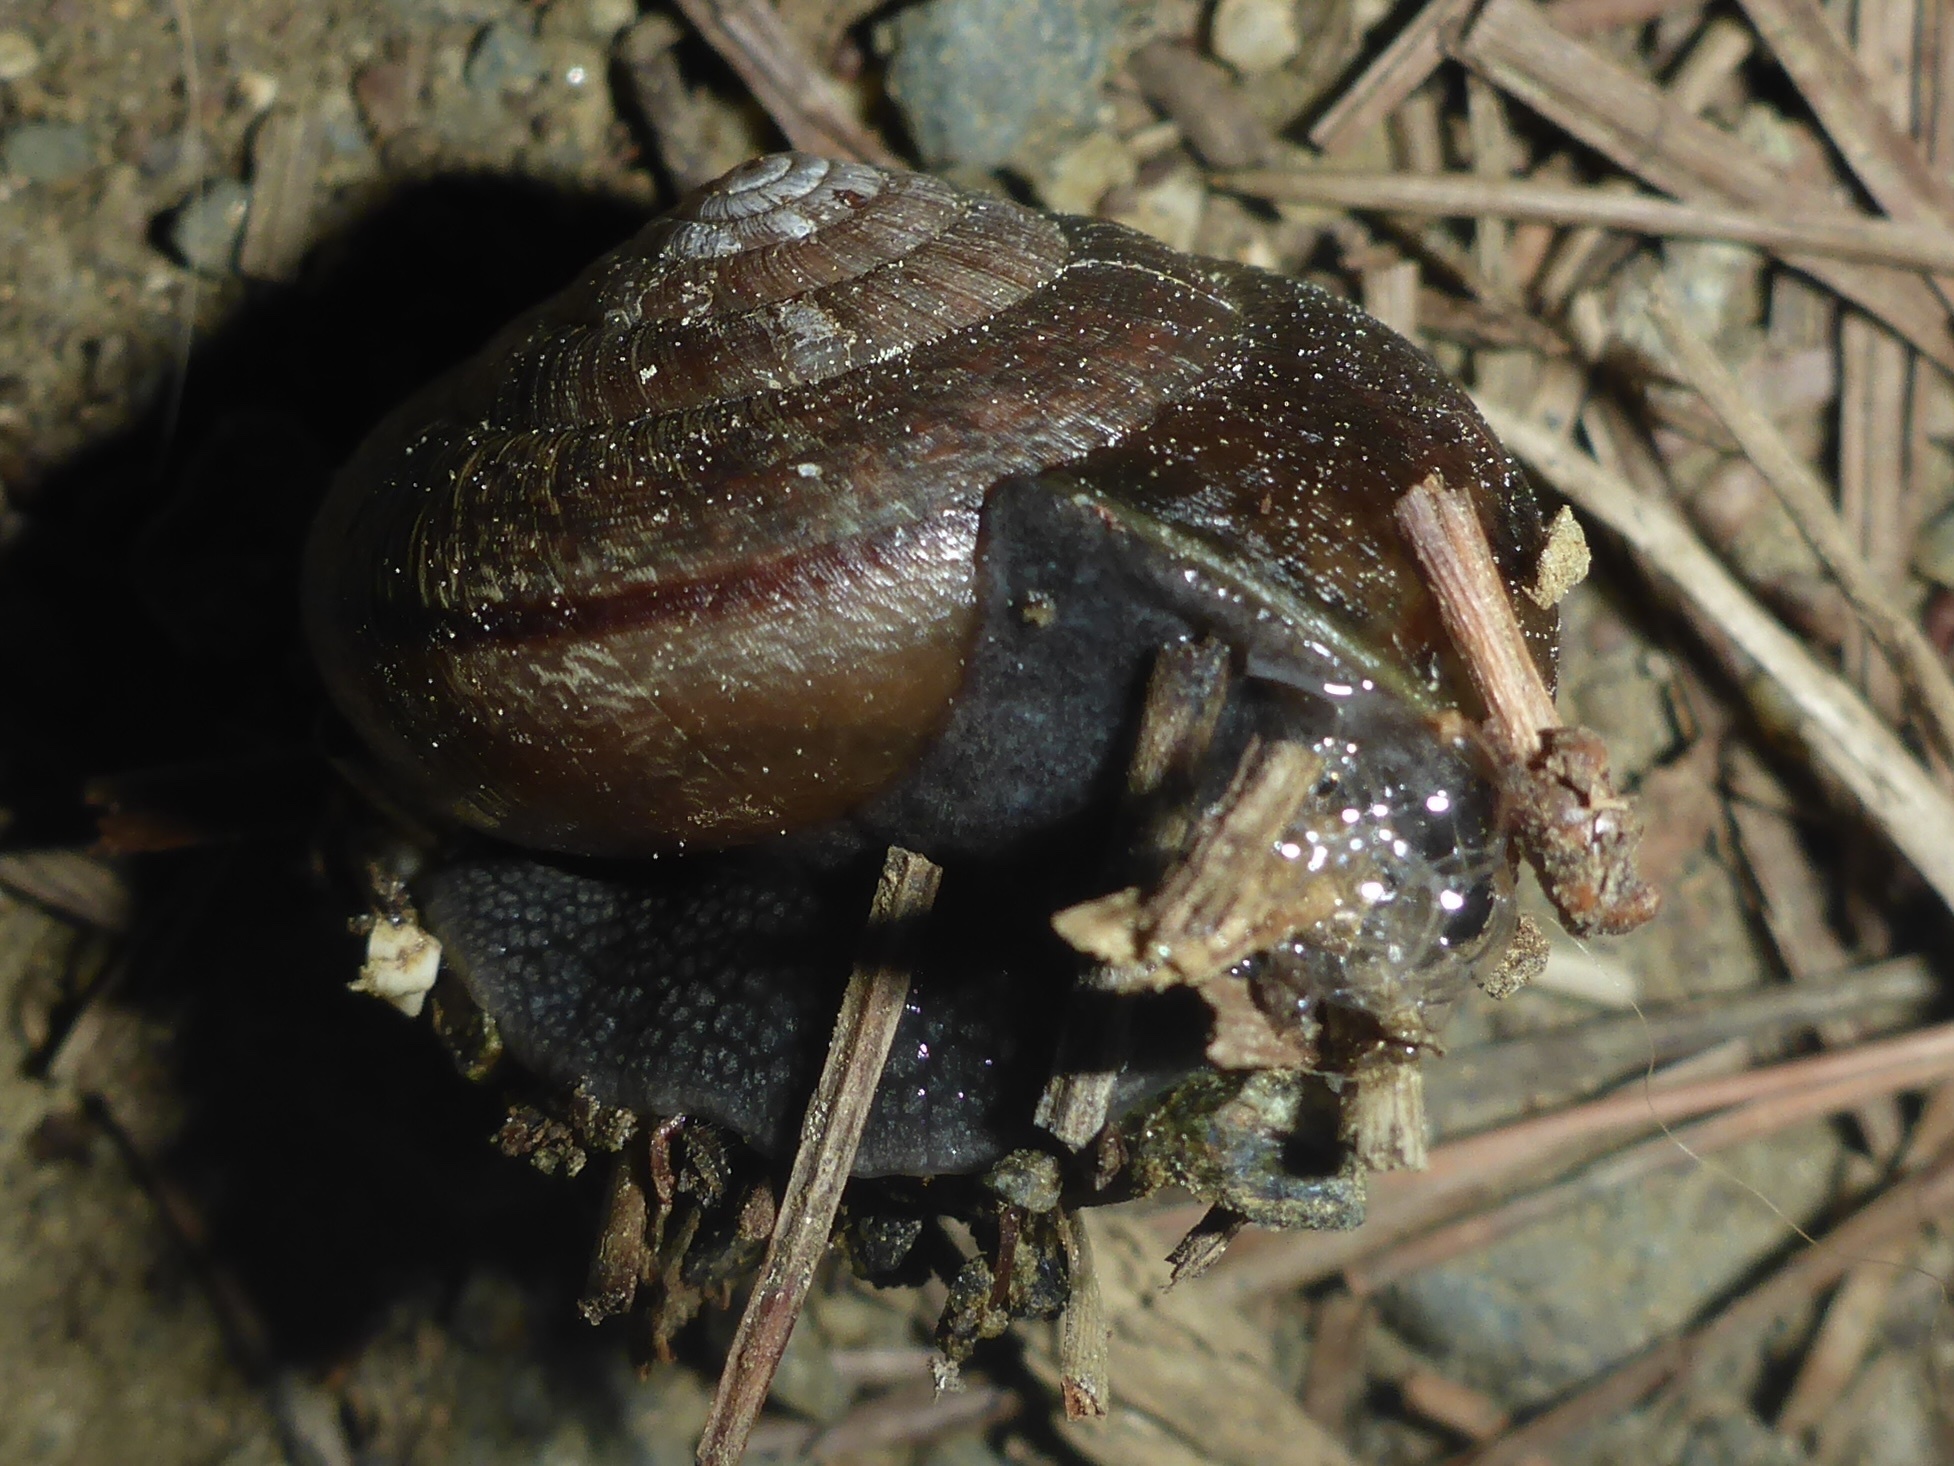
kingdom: Animalia
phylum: Mollusca
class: Gastropoda
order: Stylommatophora
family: Xanthonychidae
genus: Helminthoglypta
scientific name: Helminthoglypta arrosa
